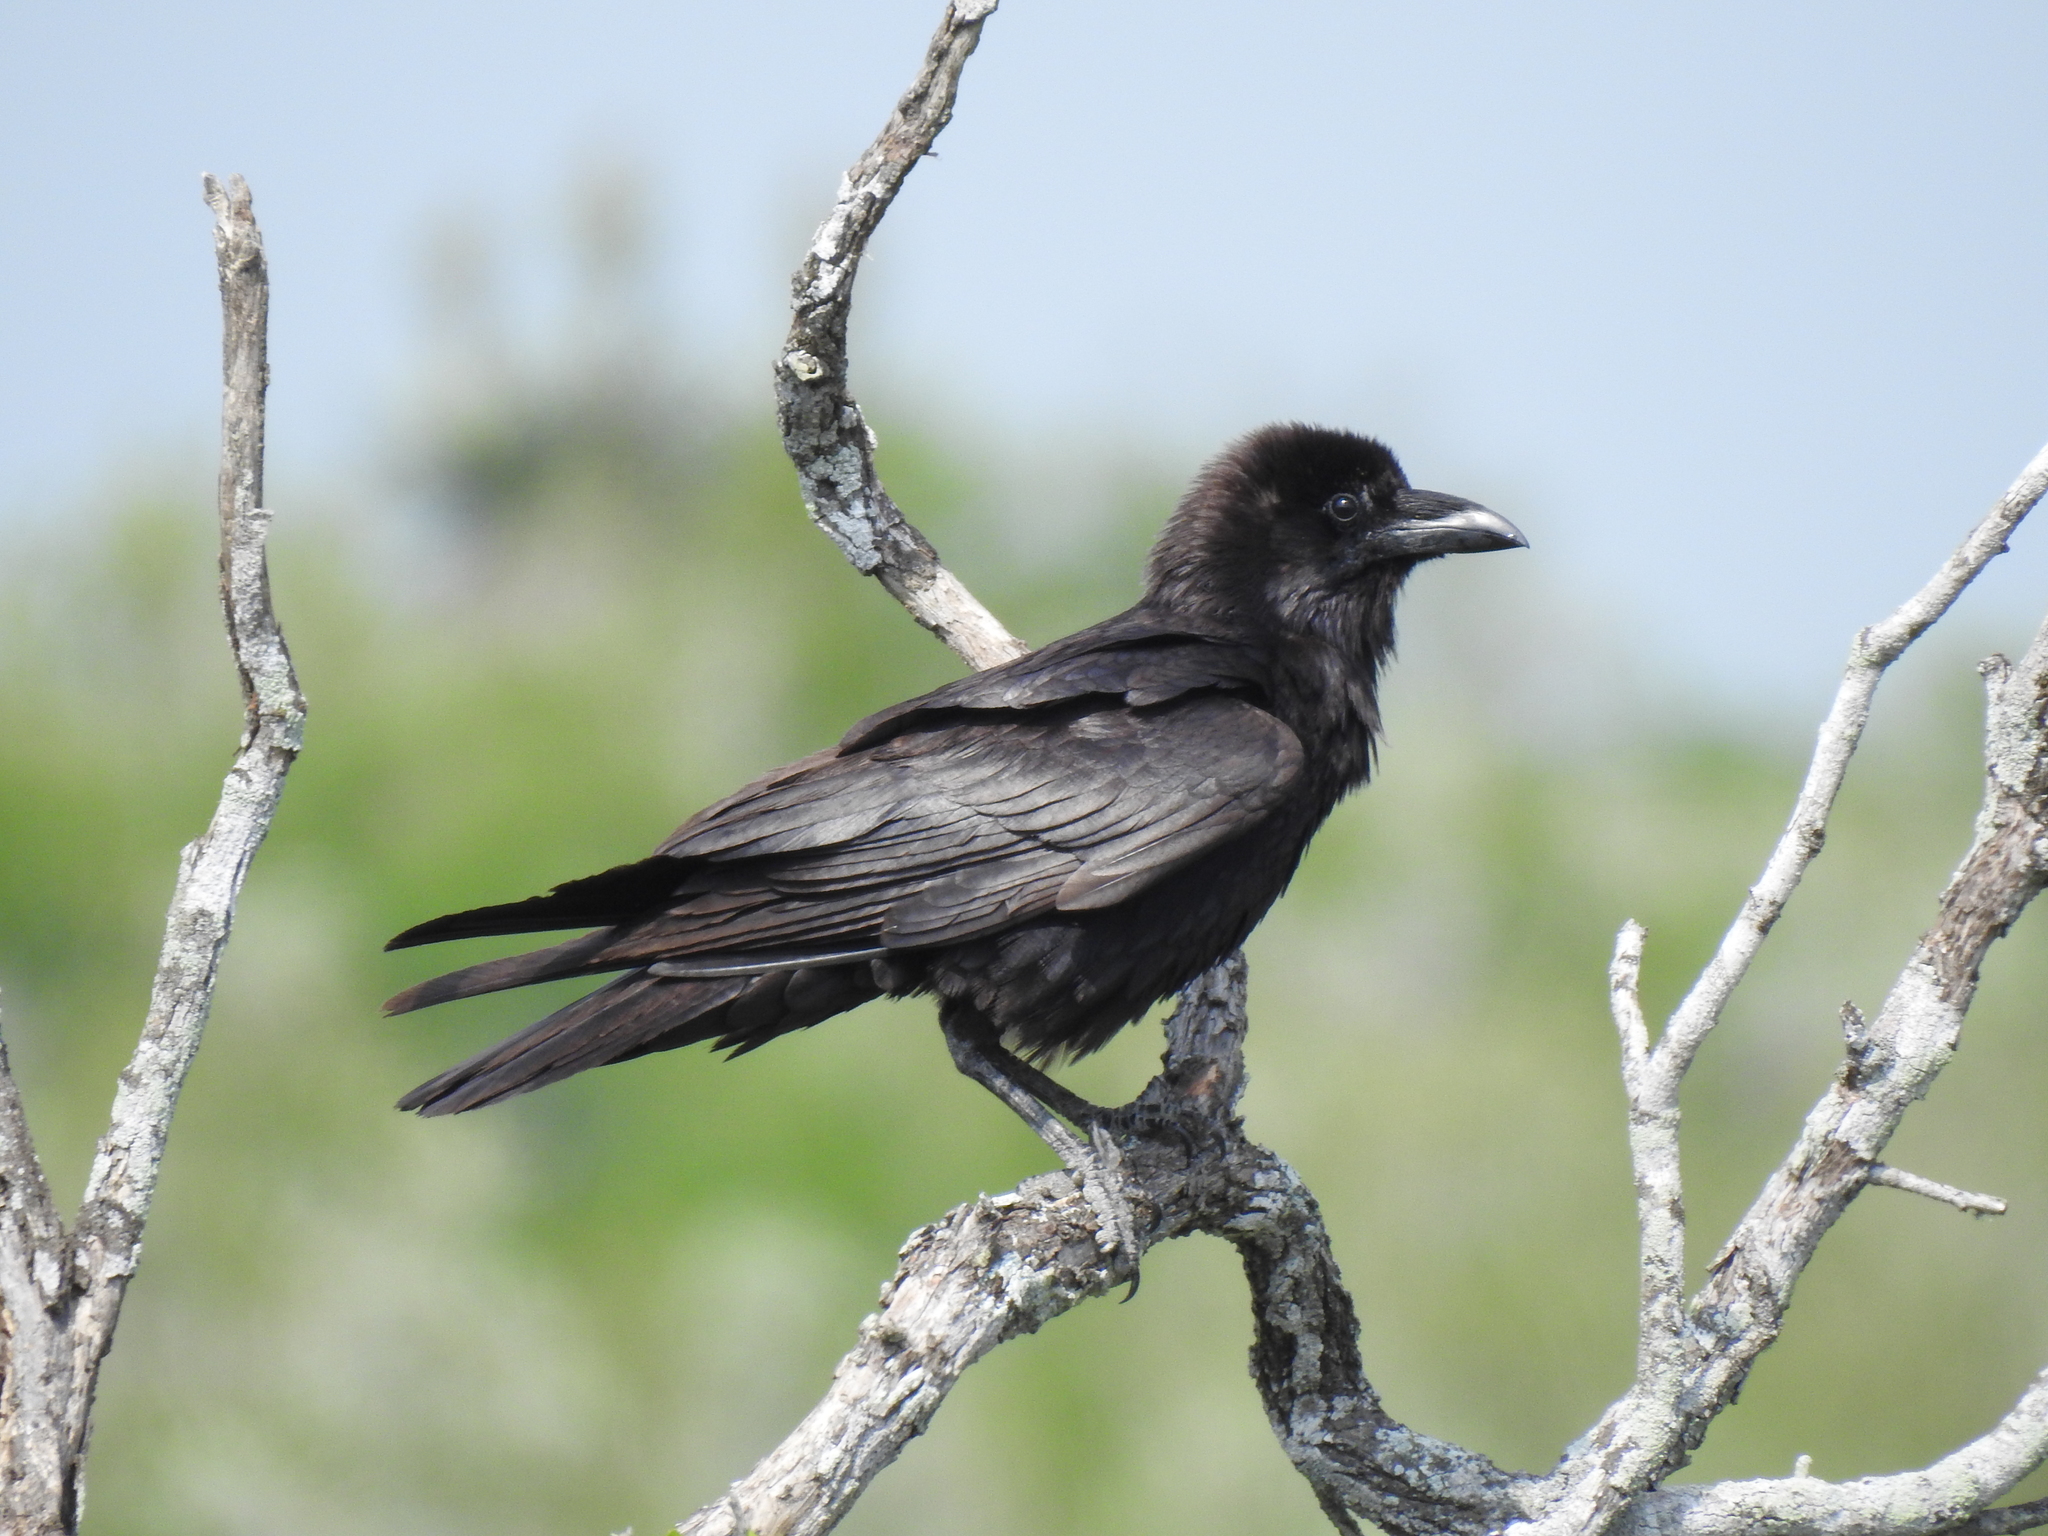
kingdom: Animalia
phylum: Chordata
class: Aves
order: Passeriformes
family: Corvidae
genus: Corvus
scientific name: Corvus cryptoleucus
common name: Chihuahuan raven
